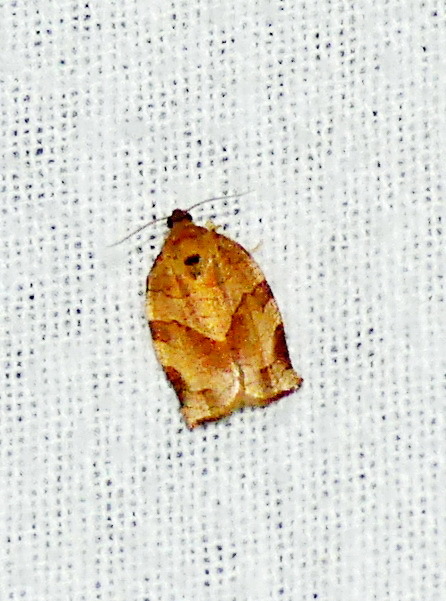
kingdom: Animalia
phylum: Arthropoda
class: Insecta
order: Lepidoptera
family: Tortricidae
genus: Choristoneura
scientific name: Choristoneura rosaceana
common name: Oblique-banded leafroller moth
